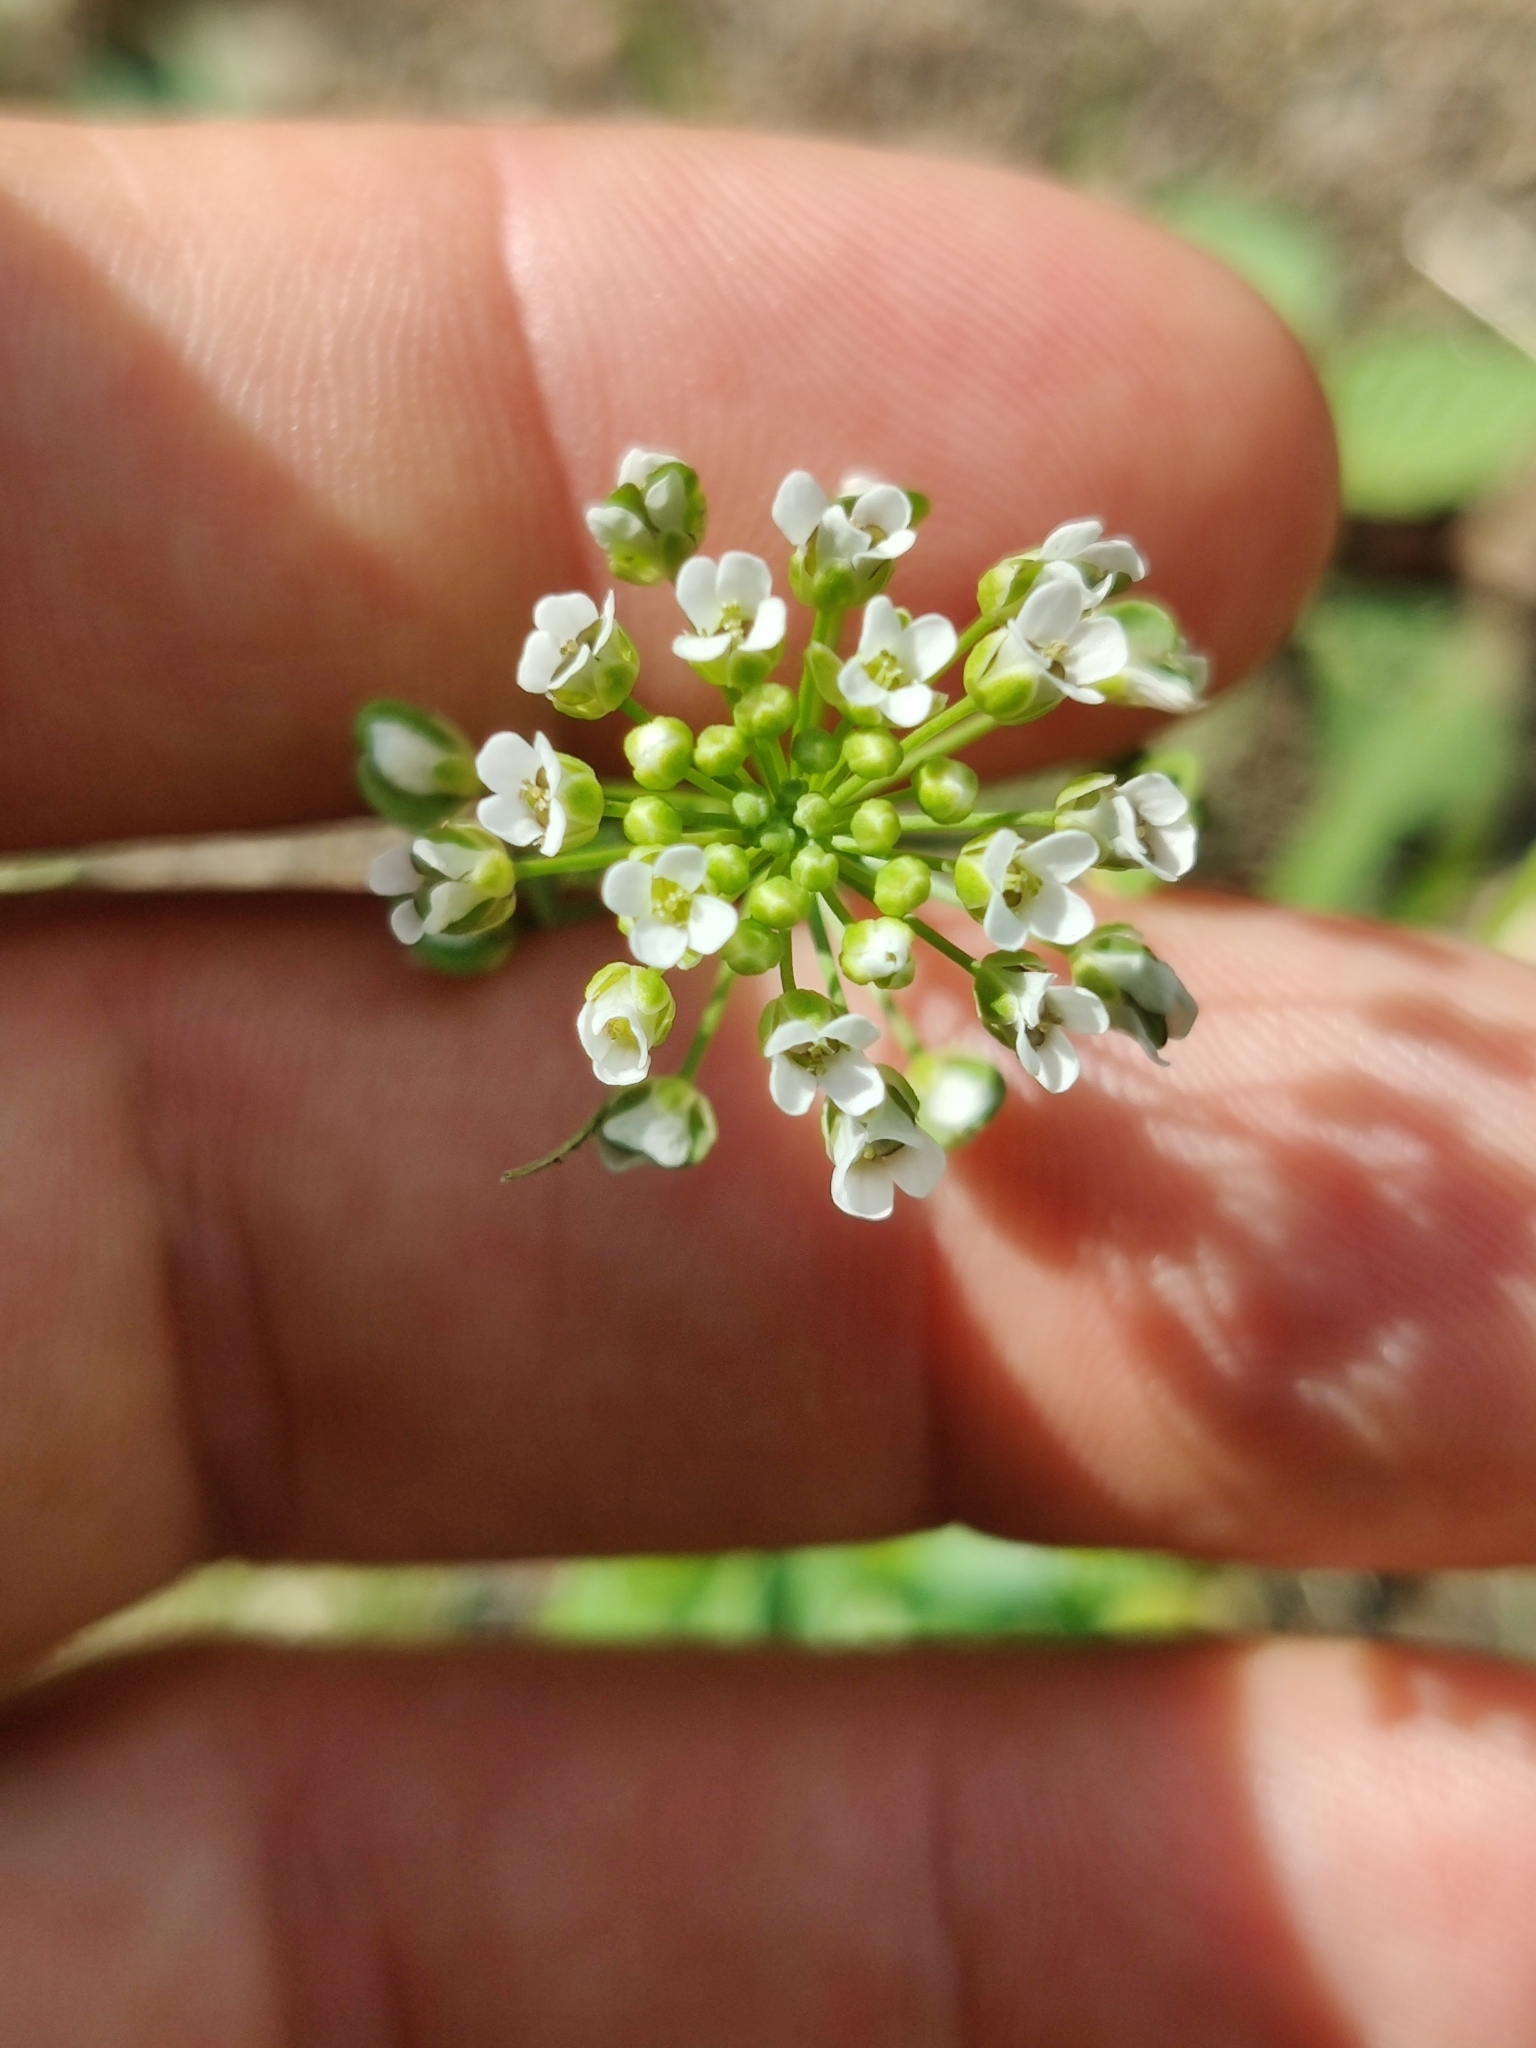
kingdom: Plantae
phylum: Tracheophyta
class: Magnoliopsida
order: Brassicales
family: Brassicaceae
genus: Thlaspi
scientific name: Thlaspi arvense
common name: Field pennycress
